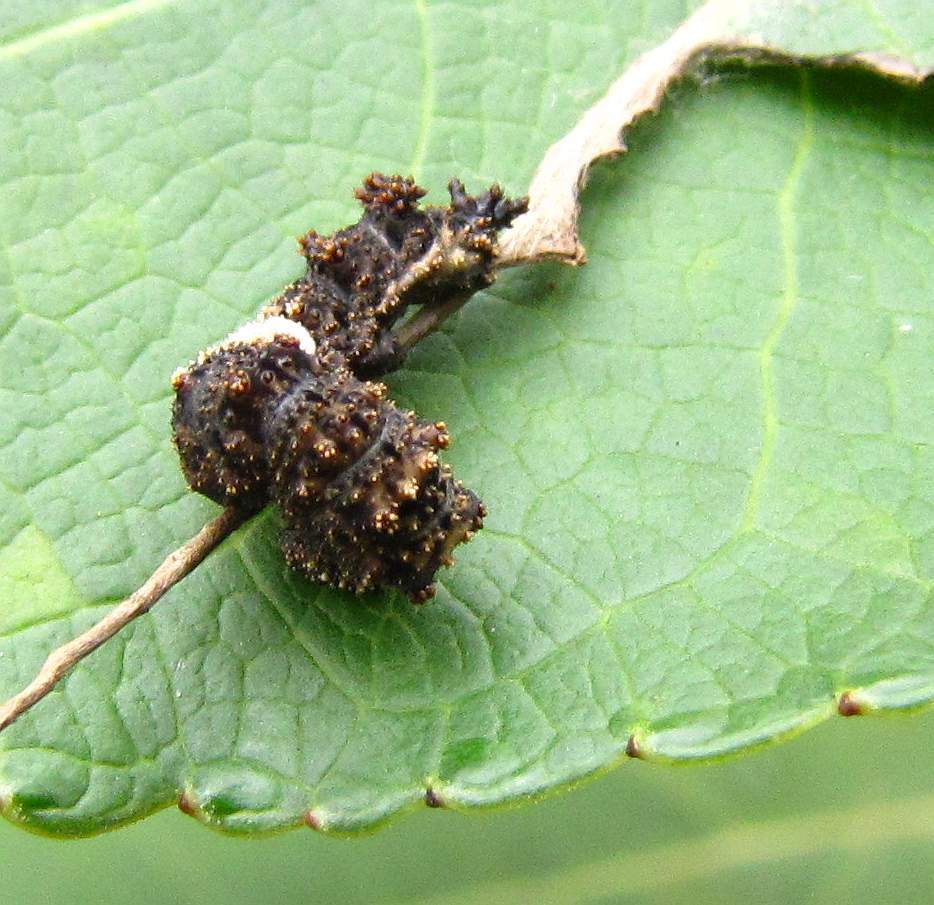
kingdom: Animalia
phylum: Arthropoda
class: Insecta
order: Lepidoptera
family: Nymphalidae
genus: Limenitis
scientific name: Limenitis
